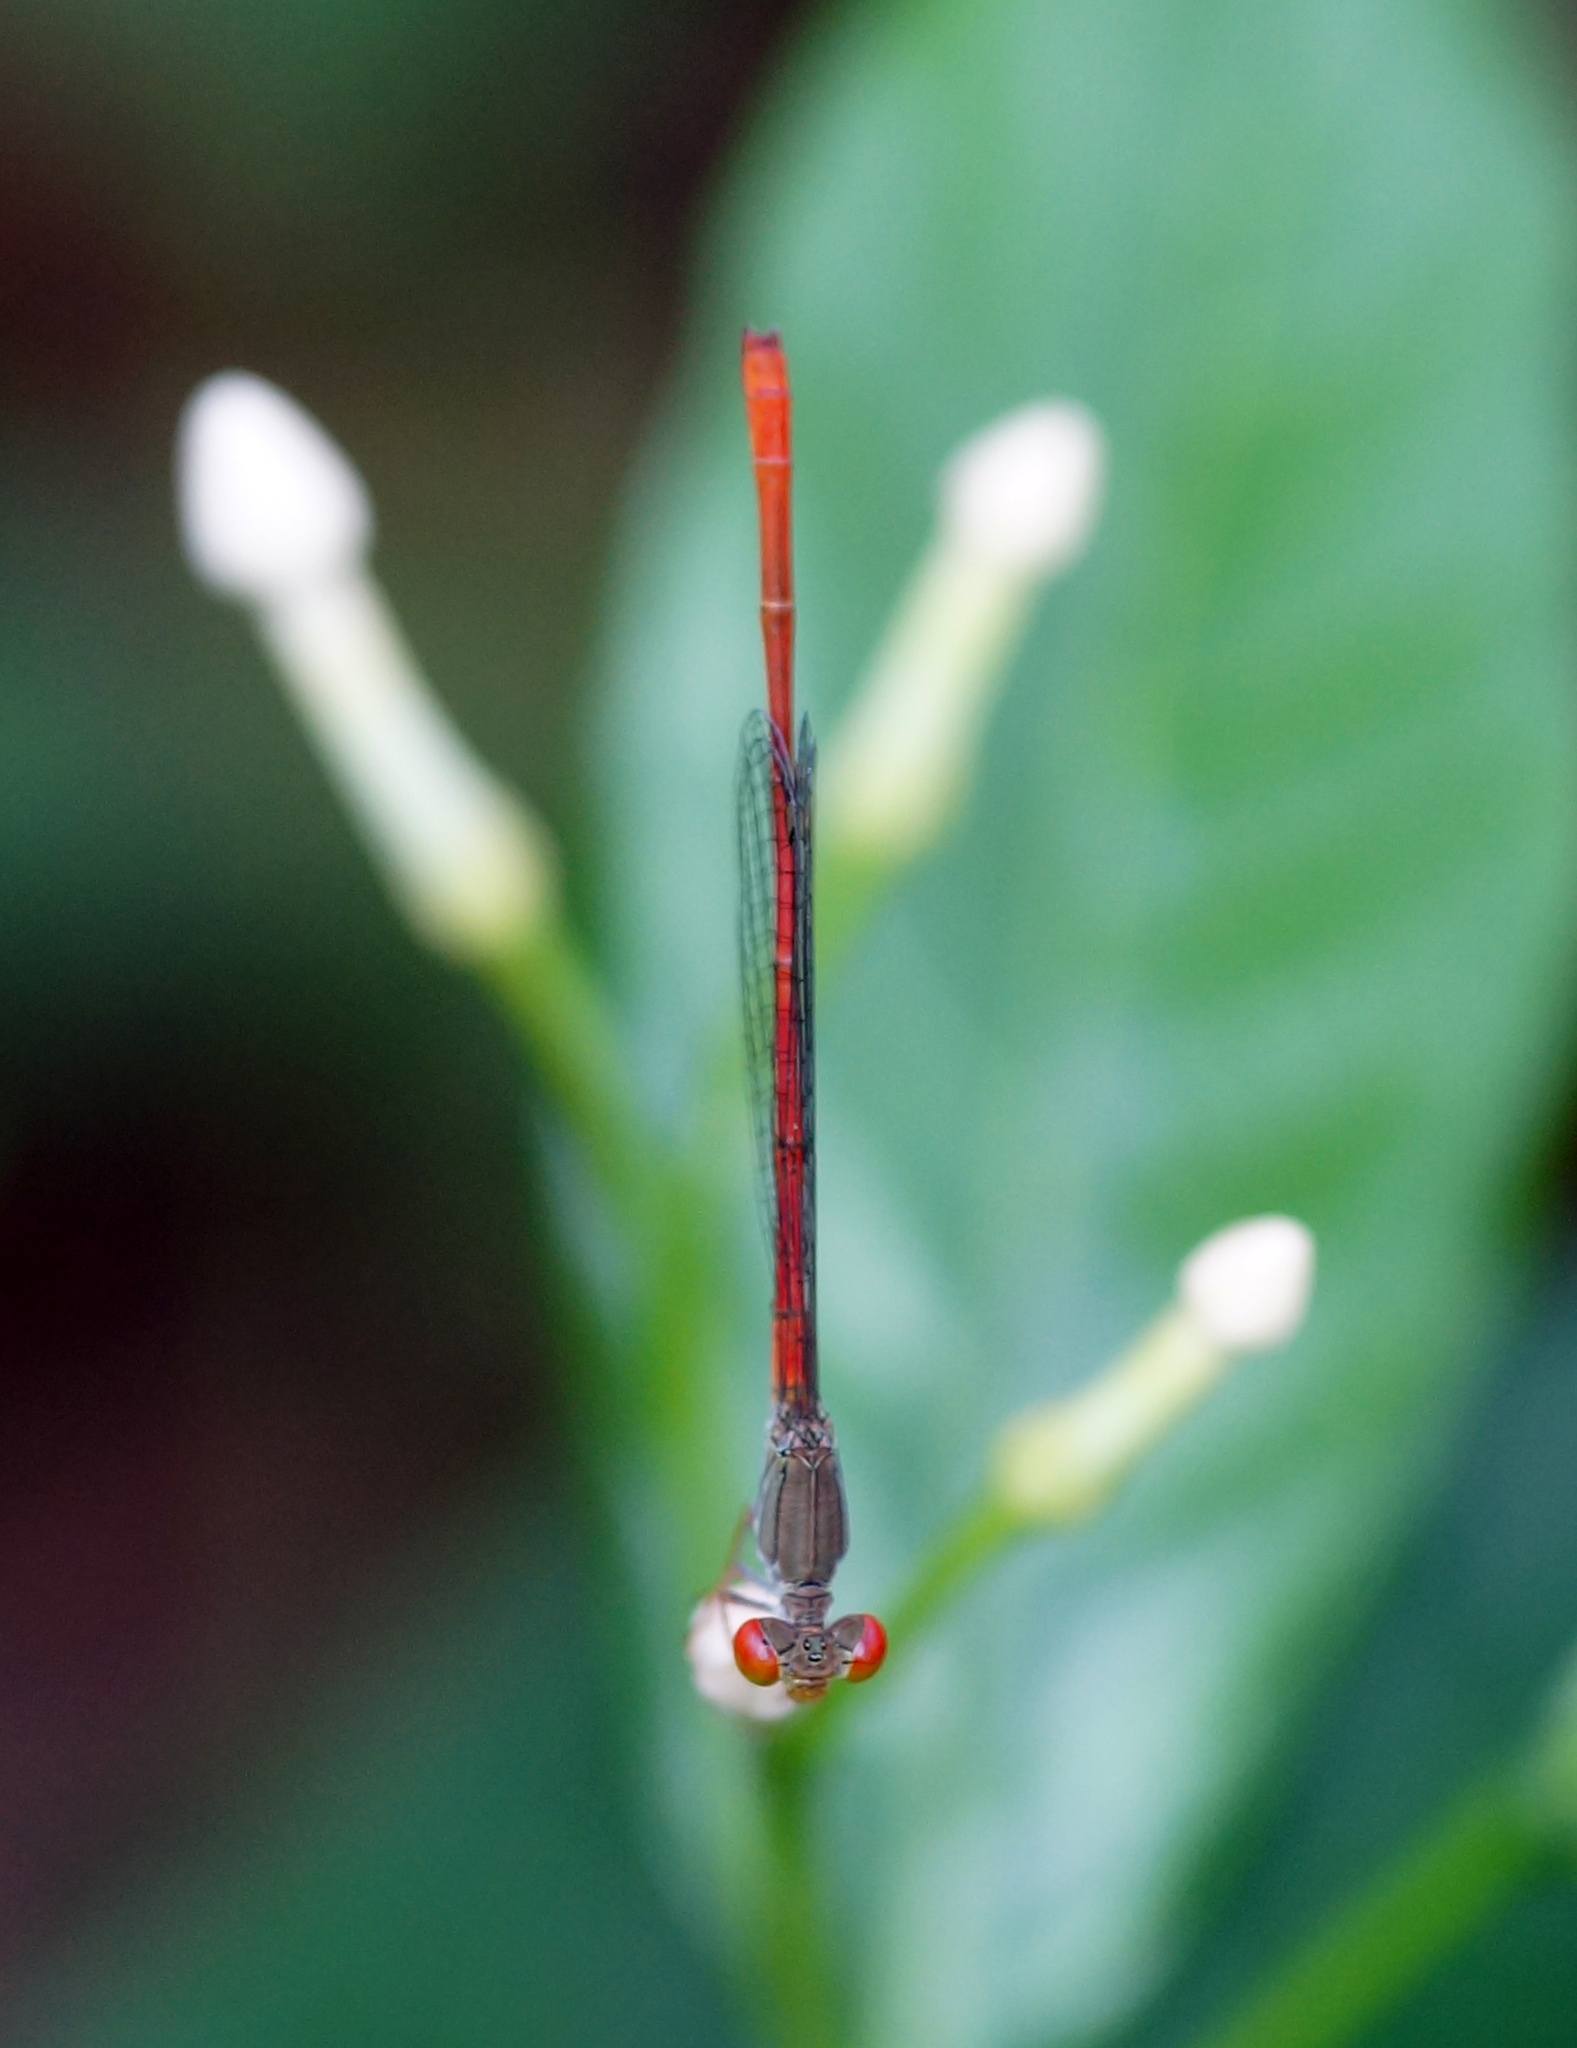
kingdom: Animalia
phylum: Arthropoda
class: Insecta
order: Odonata
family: Coenagrionidae
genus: Ceriagrion
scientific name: Ceriagrion praetermissum
